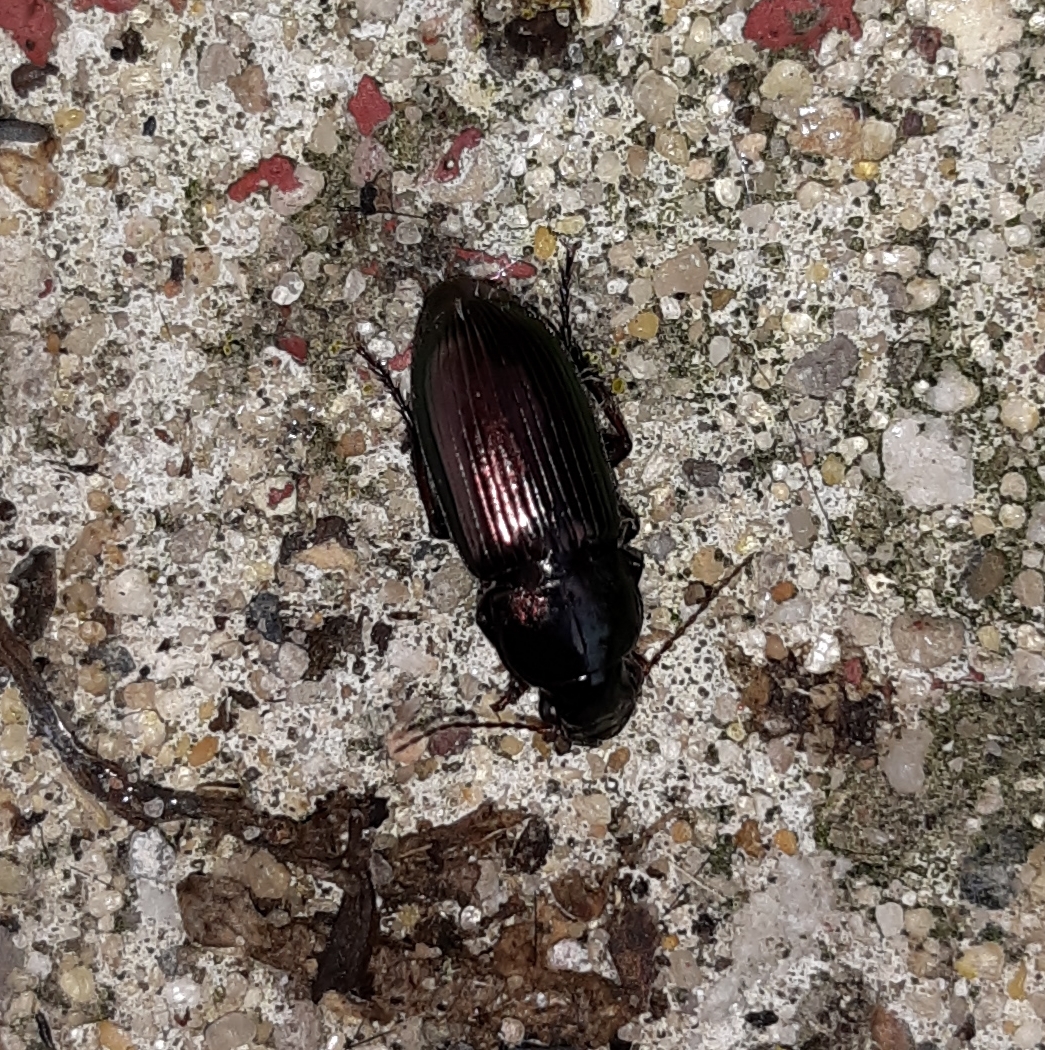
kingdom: Animalia
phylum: Arthropoda
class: Insecta
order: Coleoptera
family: Carabidae
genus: Harpalus
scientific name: Harpalus affinis
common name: Polychrome harp ground beetle
